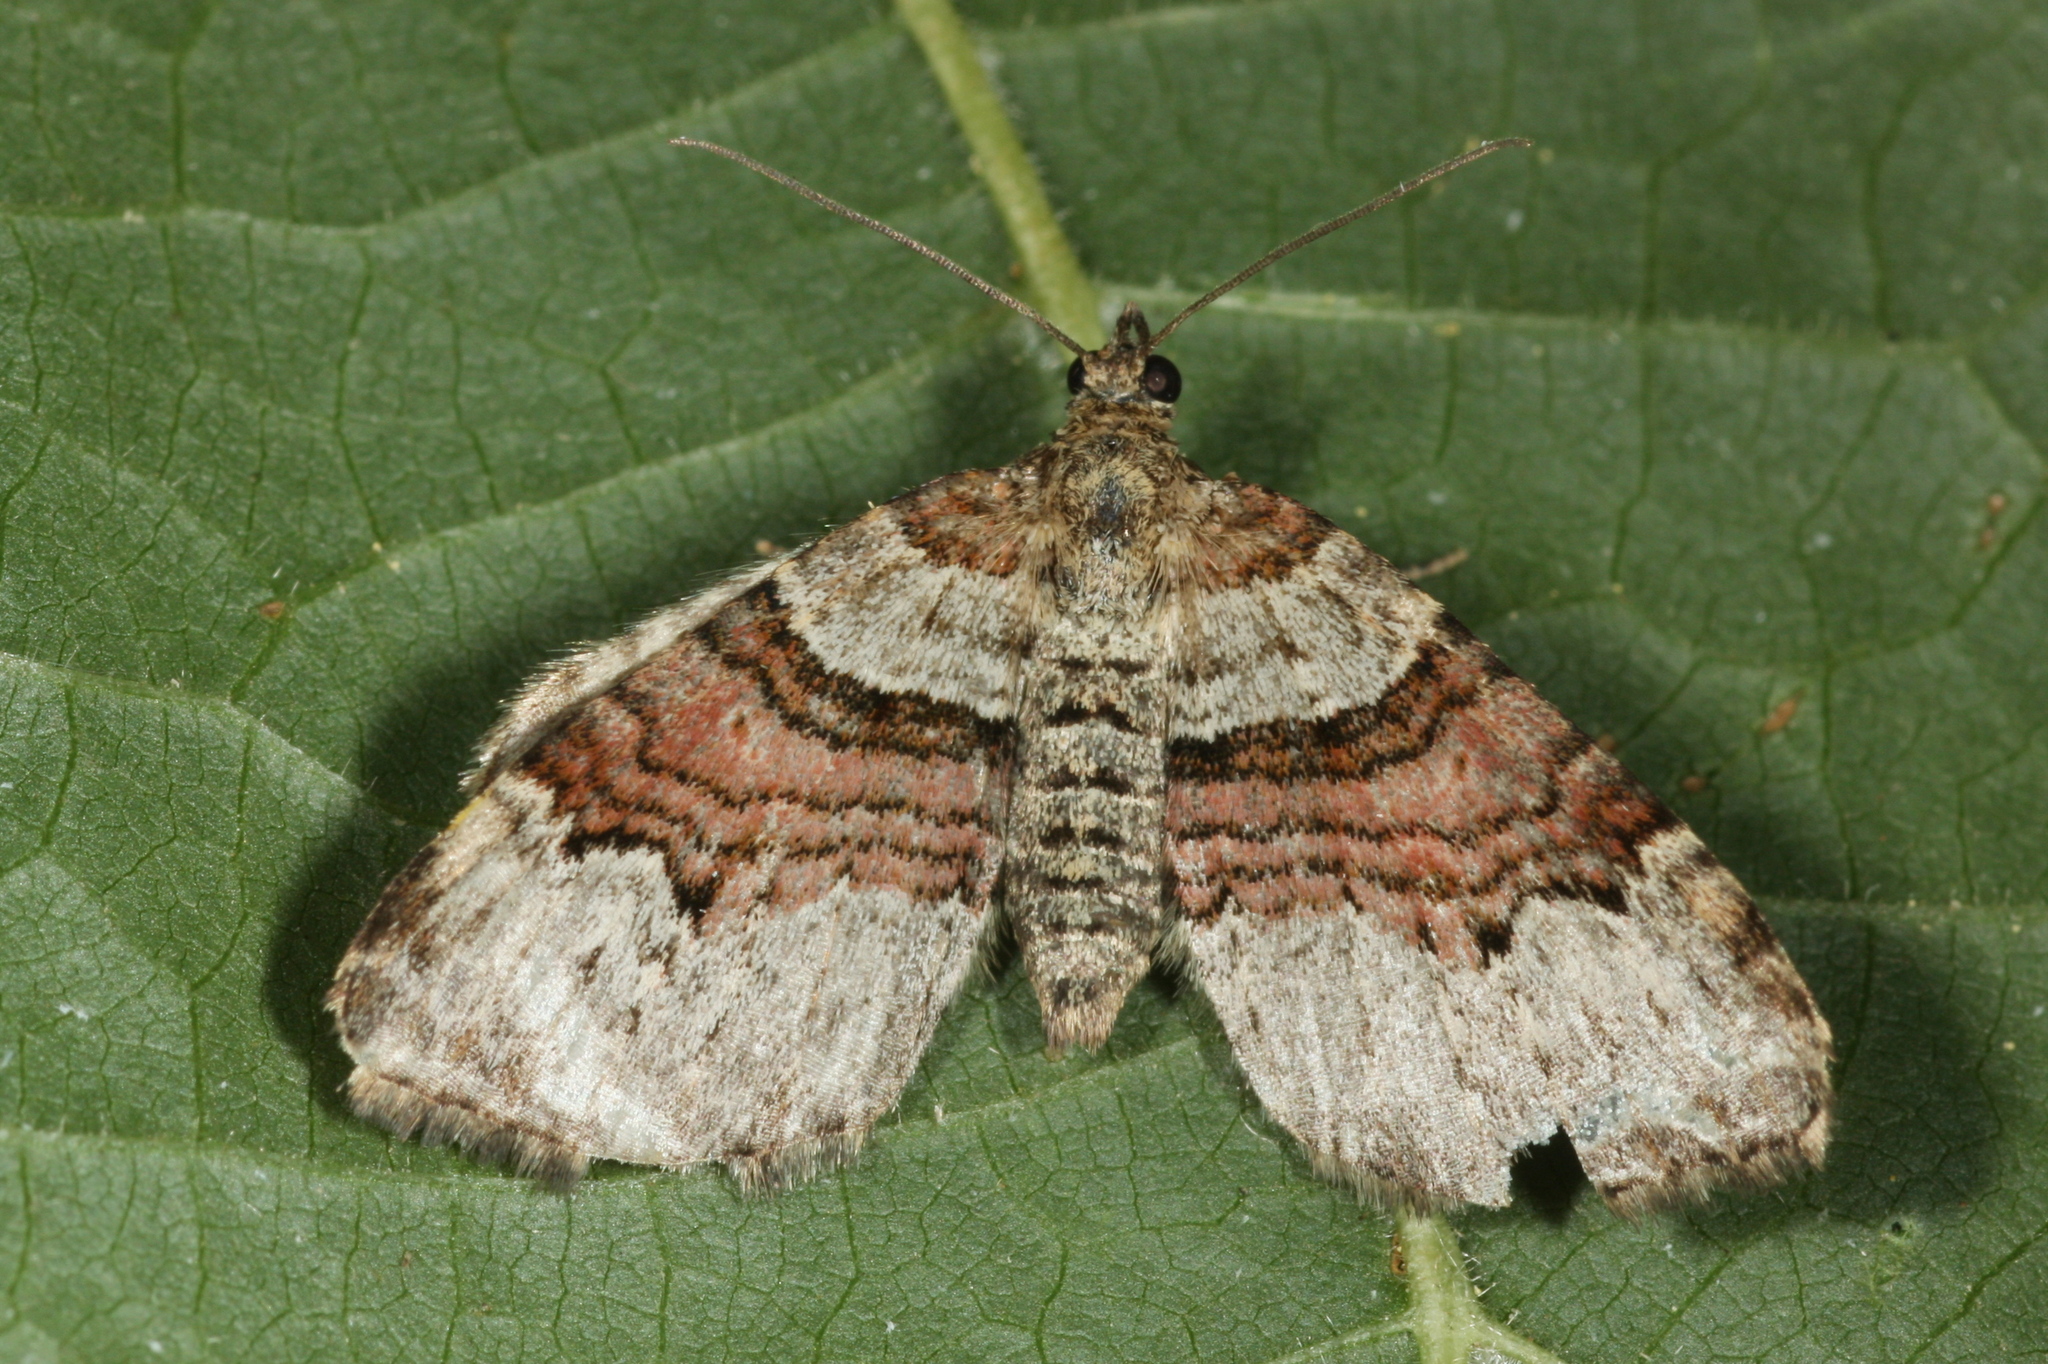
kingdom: Animalia
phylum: Arthropoda
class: Insecta
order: Lepidoptera
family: Geometridae
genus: Xanthorhoe
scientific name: Xanthorhoe designata
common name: Flame carpet
